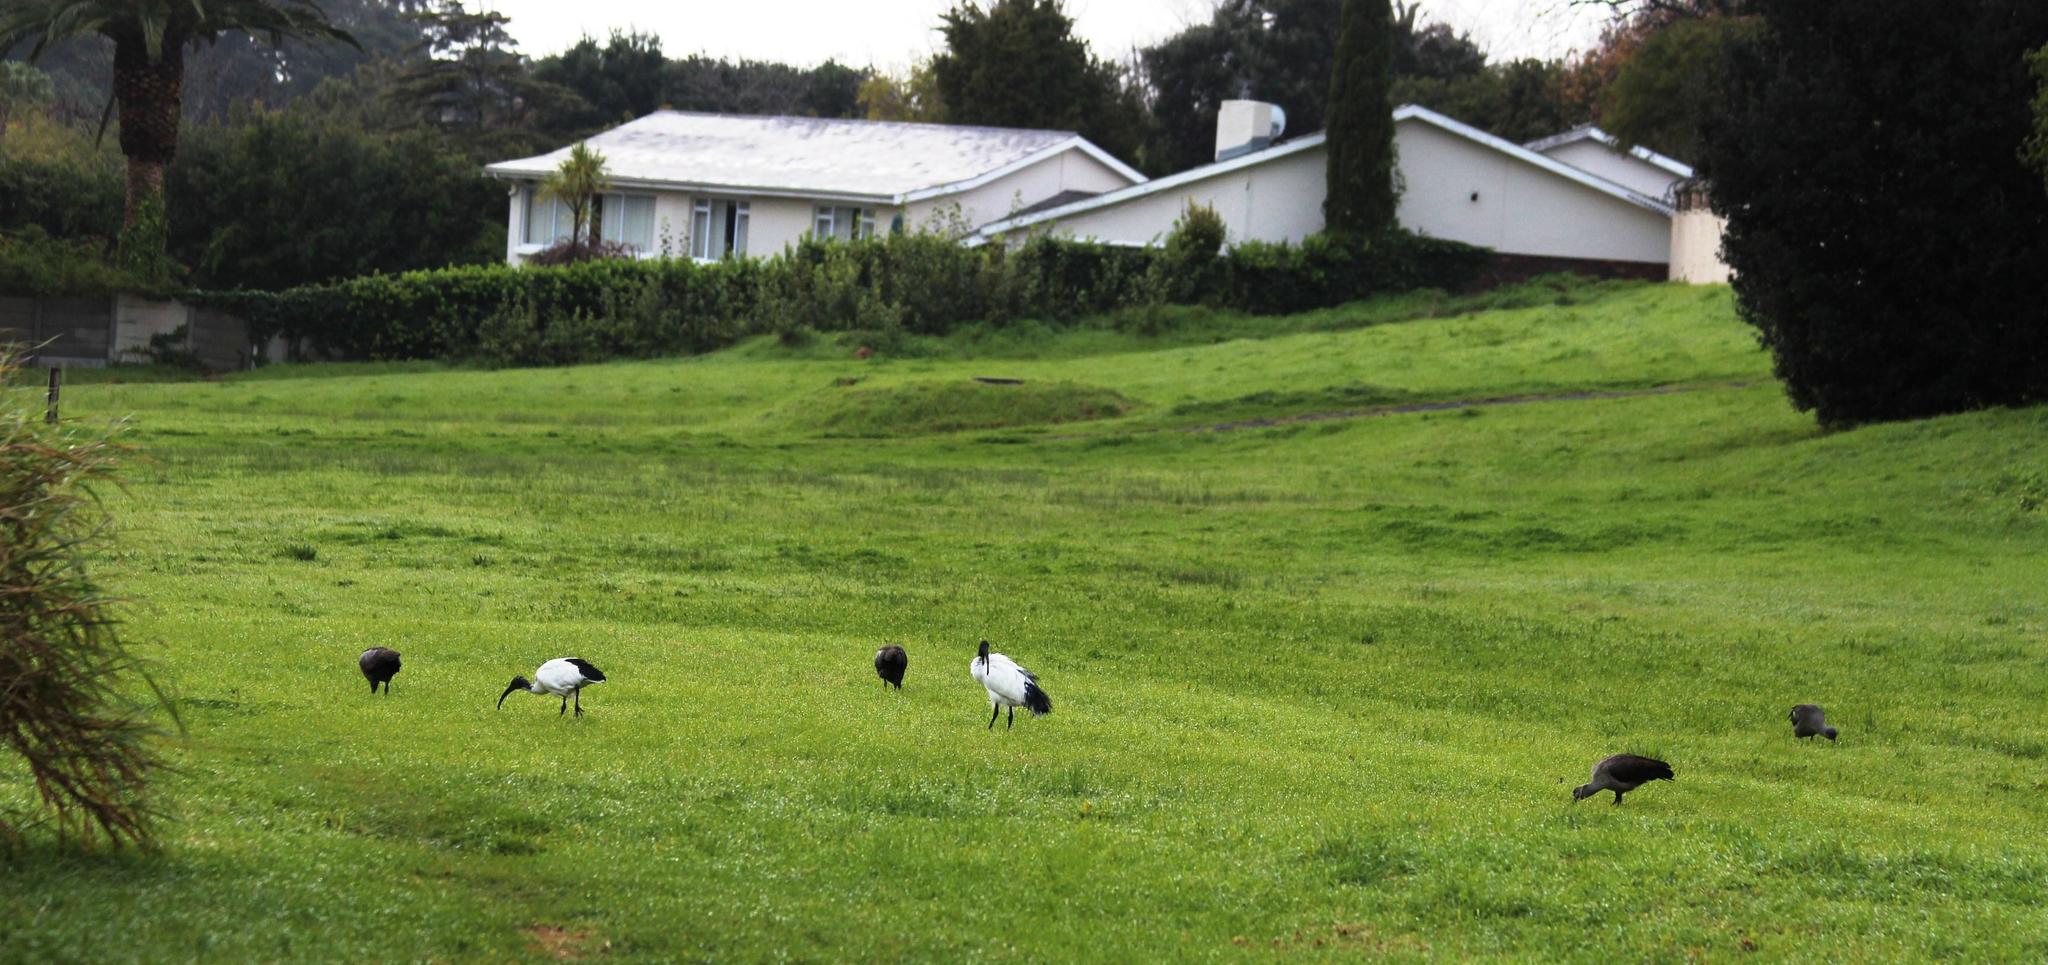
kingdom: Animalia
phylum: Chordata
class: Aves
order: Pelecaniformes
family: Threskiornithidae
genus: Threskiornis
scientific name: Threskiornis aethiopicus
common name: Sacred ibis
